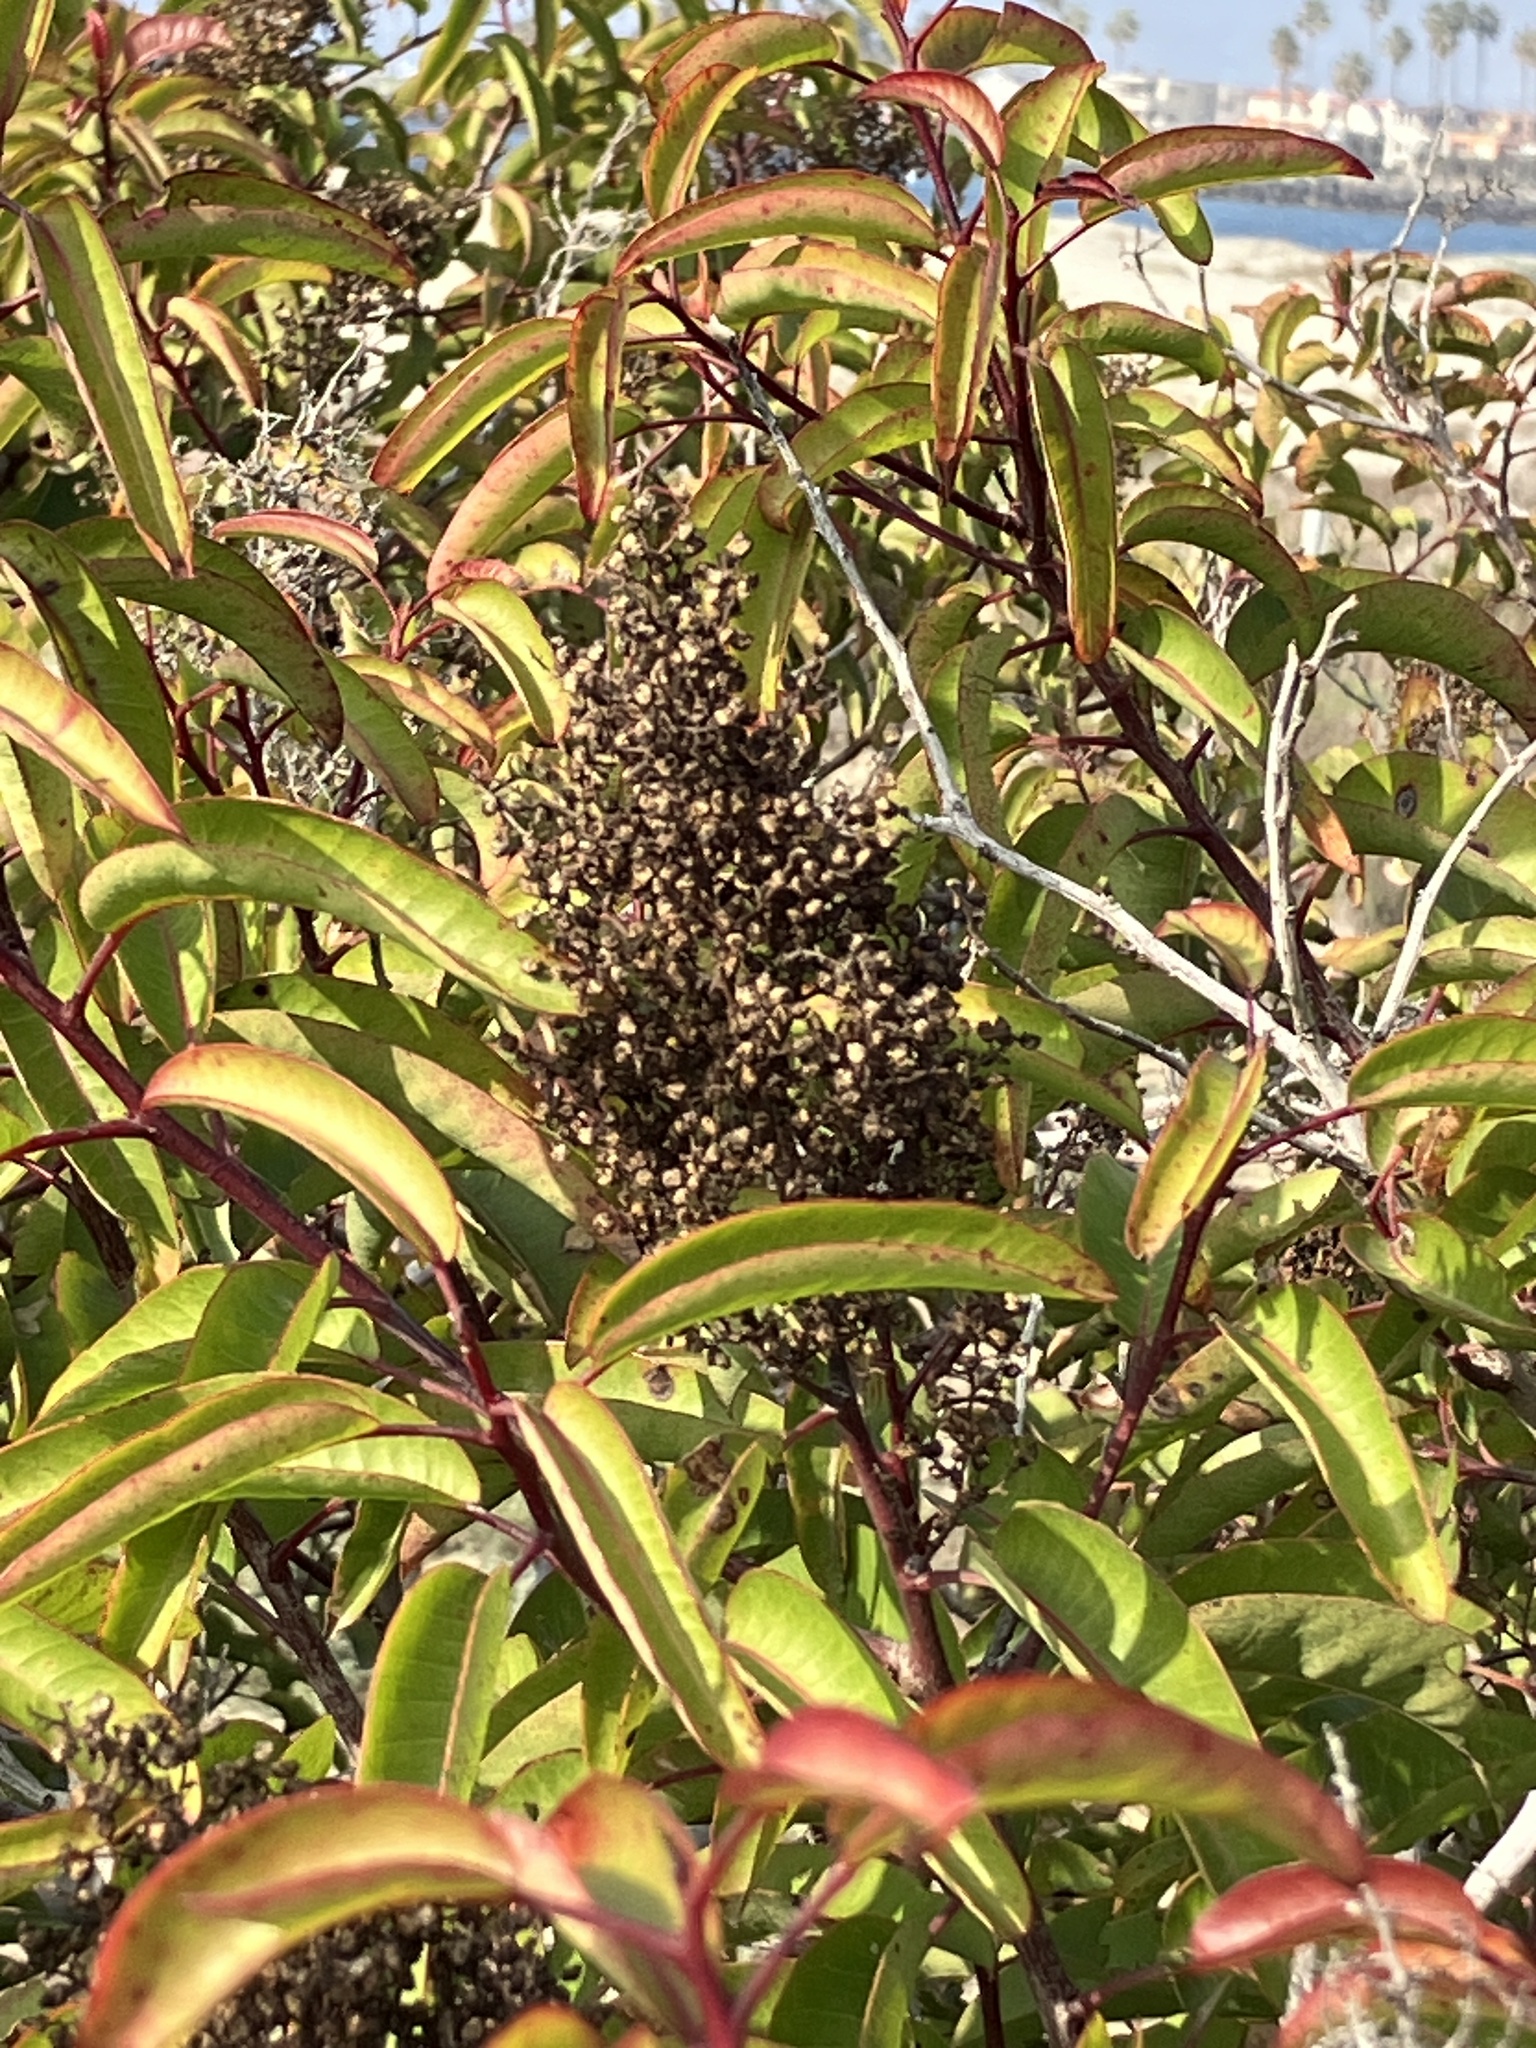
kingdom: Plantae
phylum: Tracheophyta
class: Magnoliopsida
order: Sapindales
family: Anacardiaceae
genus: Malosma
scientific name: Malosma laurina
